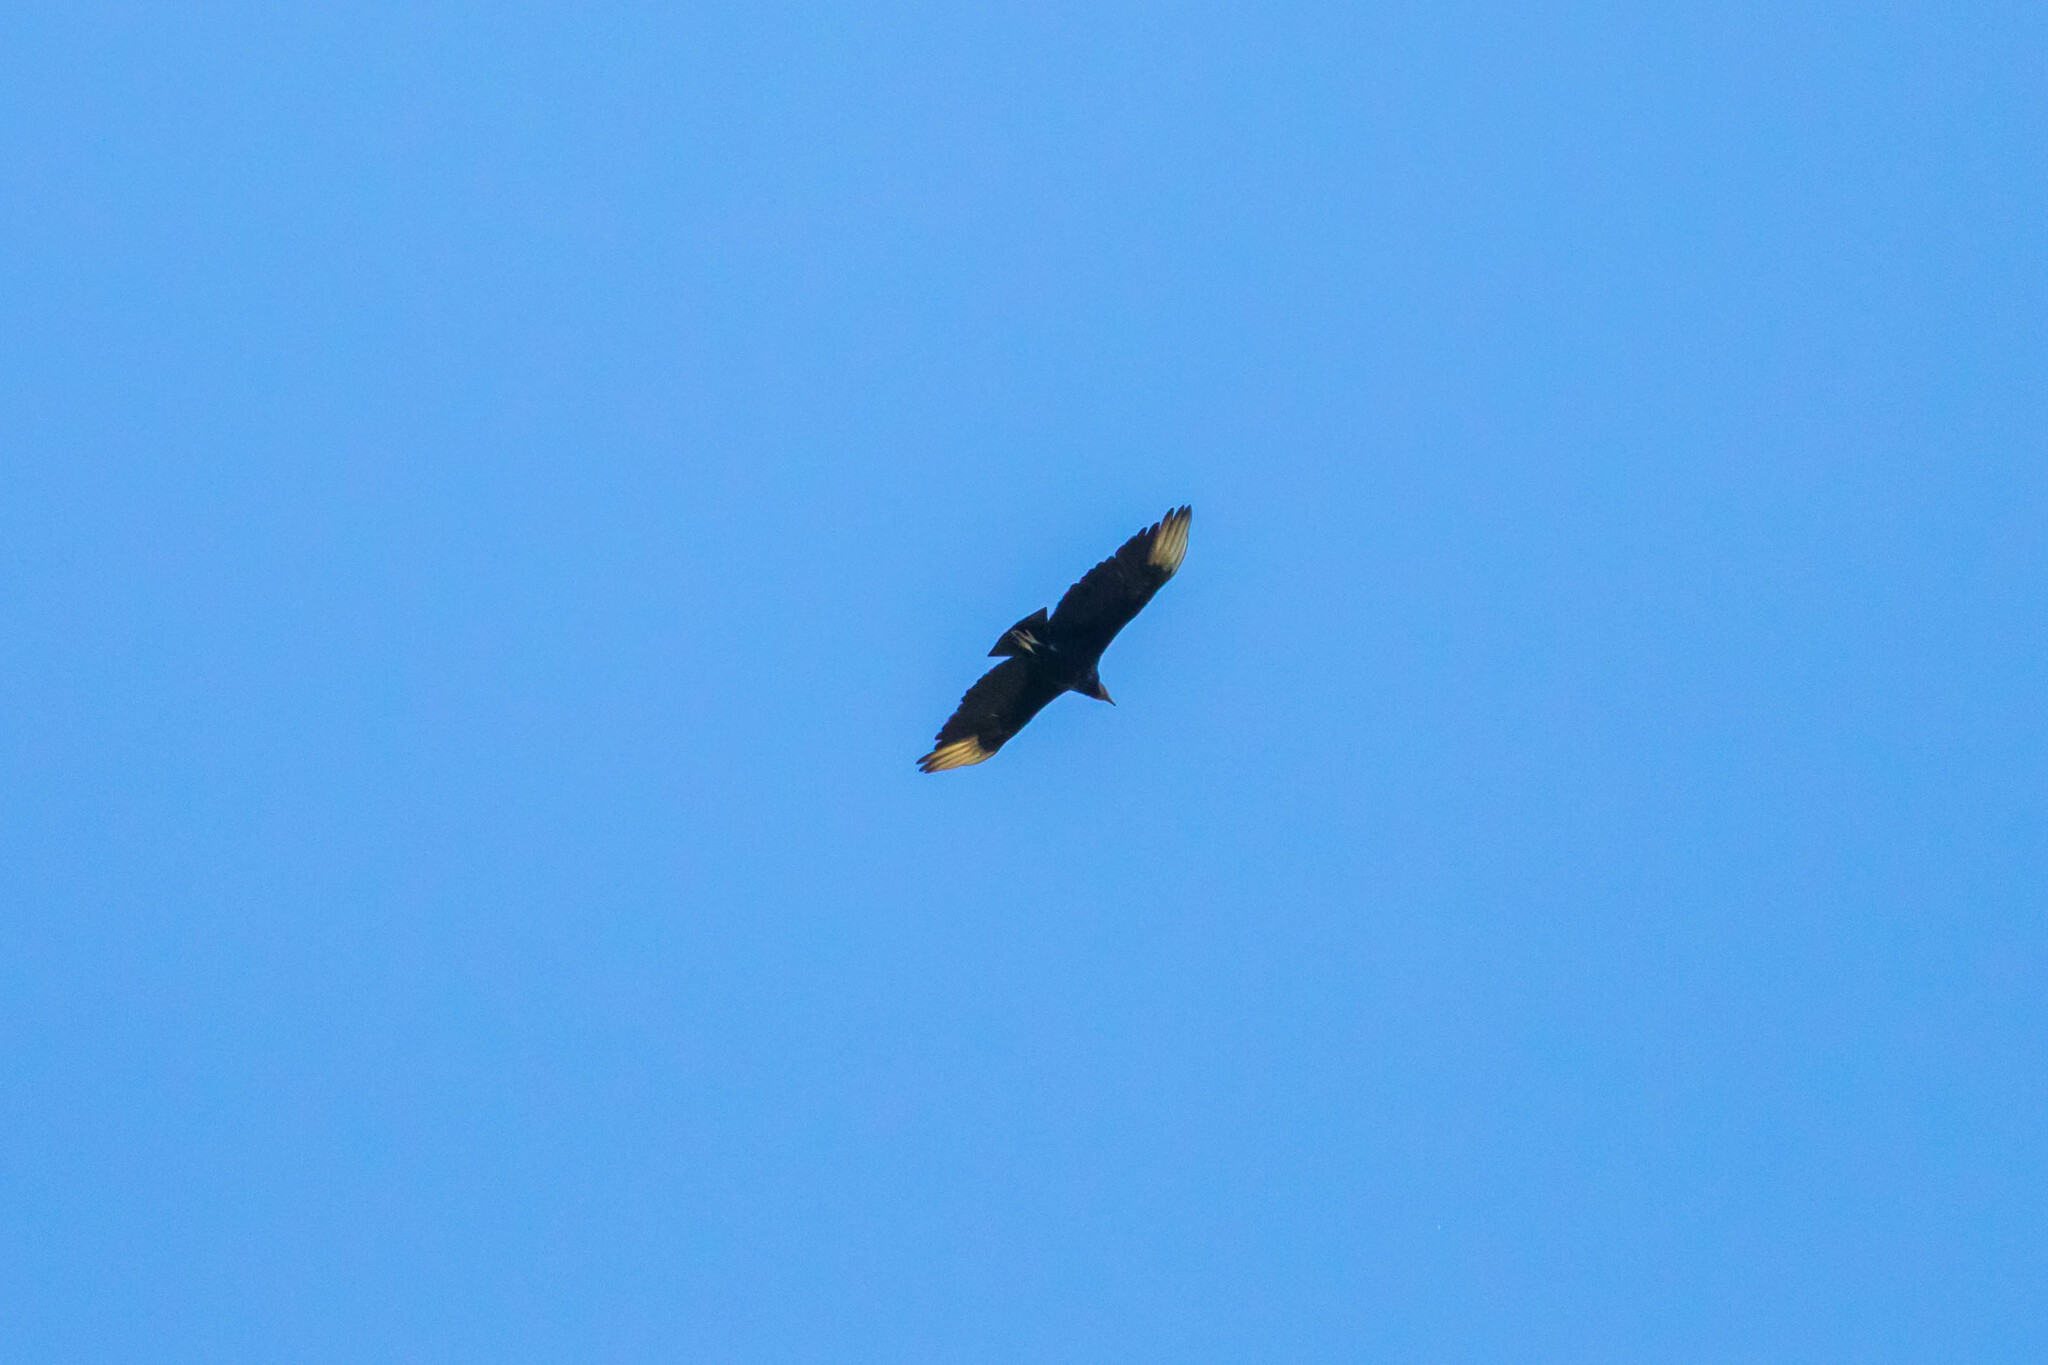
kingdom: Animalia
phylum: Chordata
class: Aves
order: Accipitriformes
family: Cathartidae
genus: Coragyps
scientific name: Coragyps atratus
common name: Black vulture
